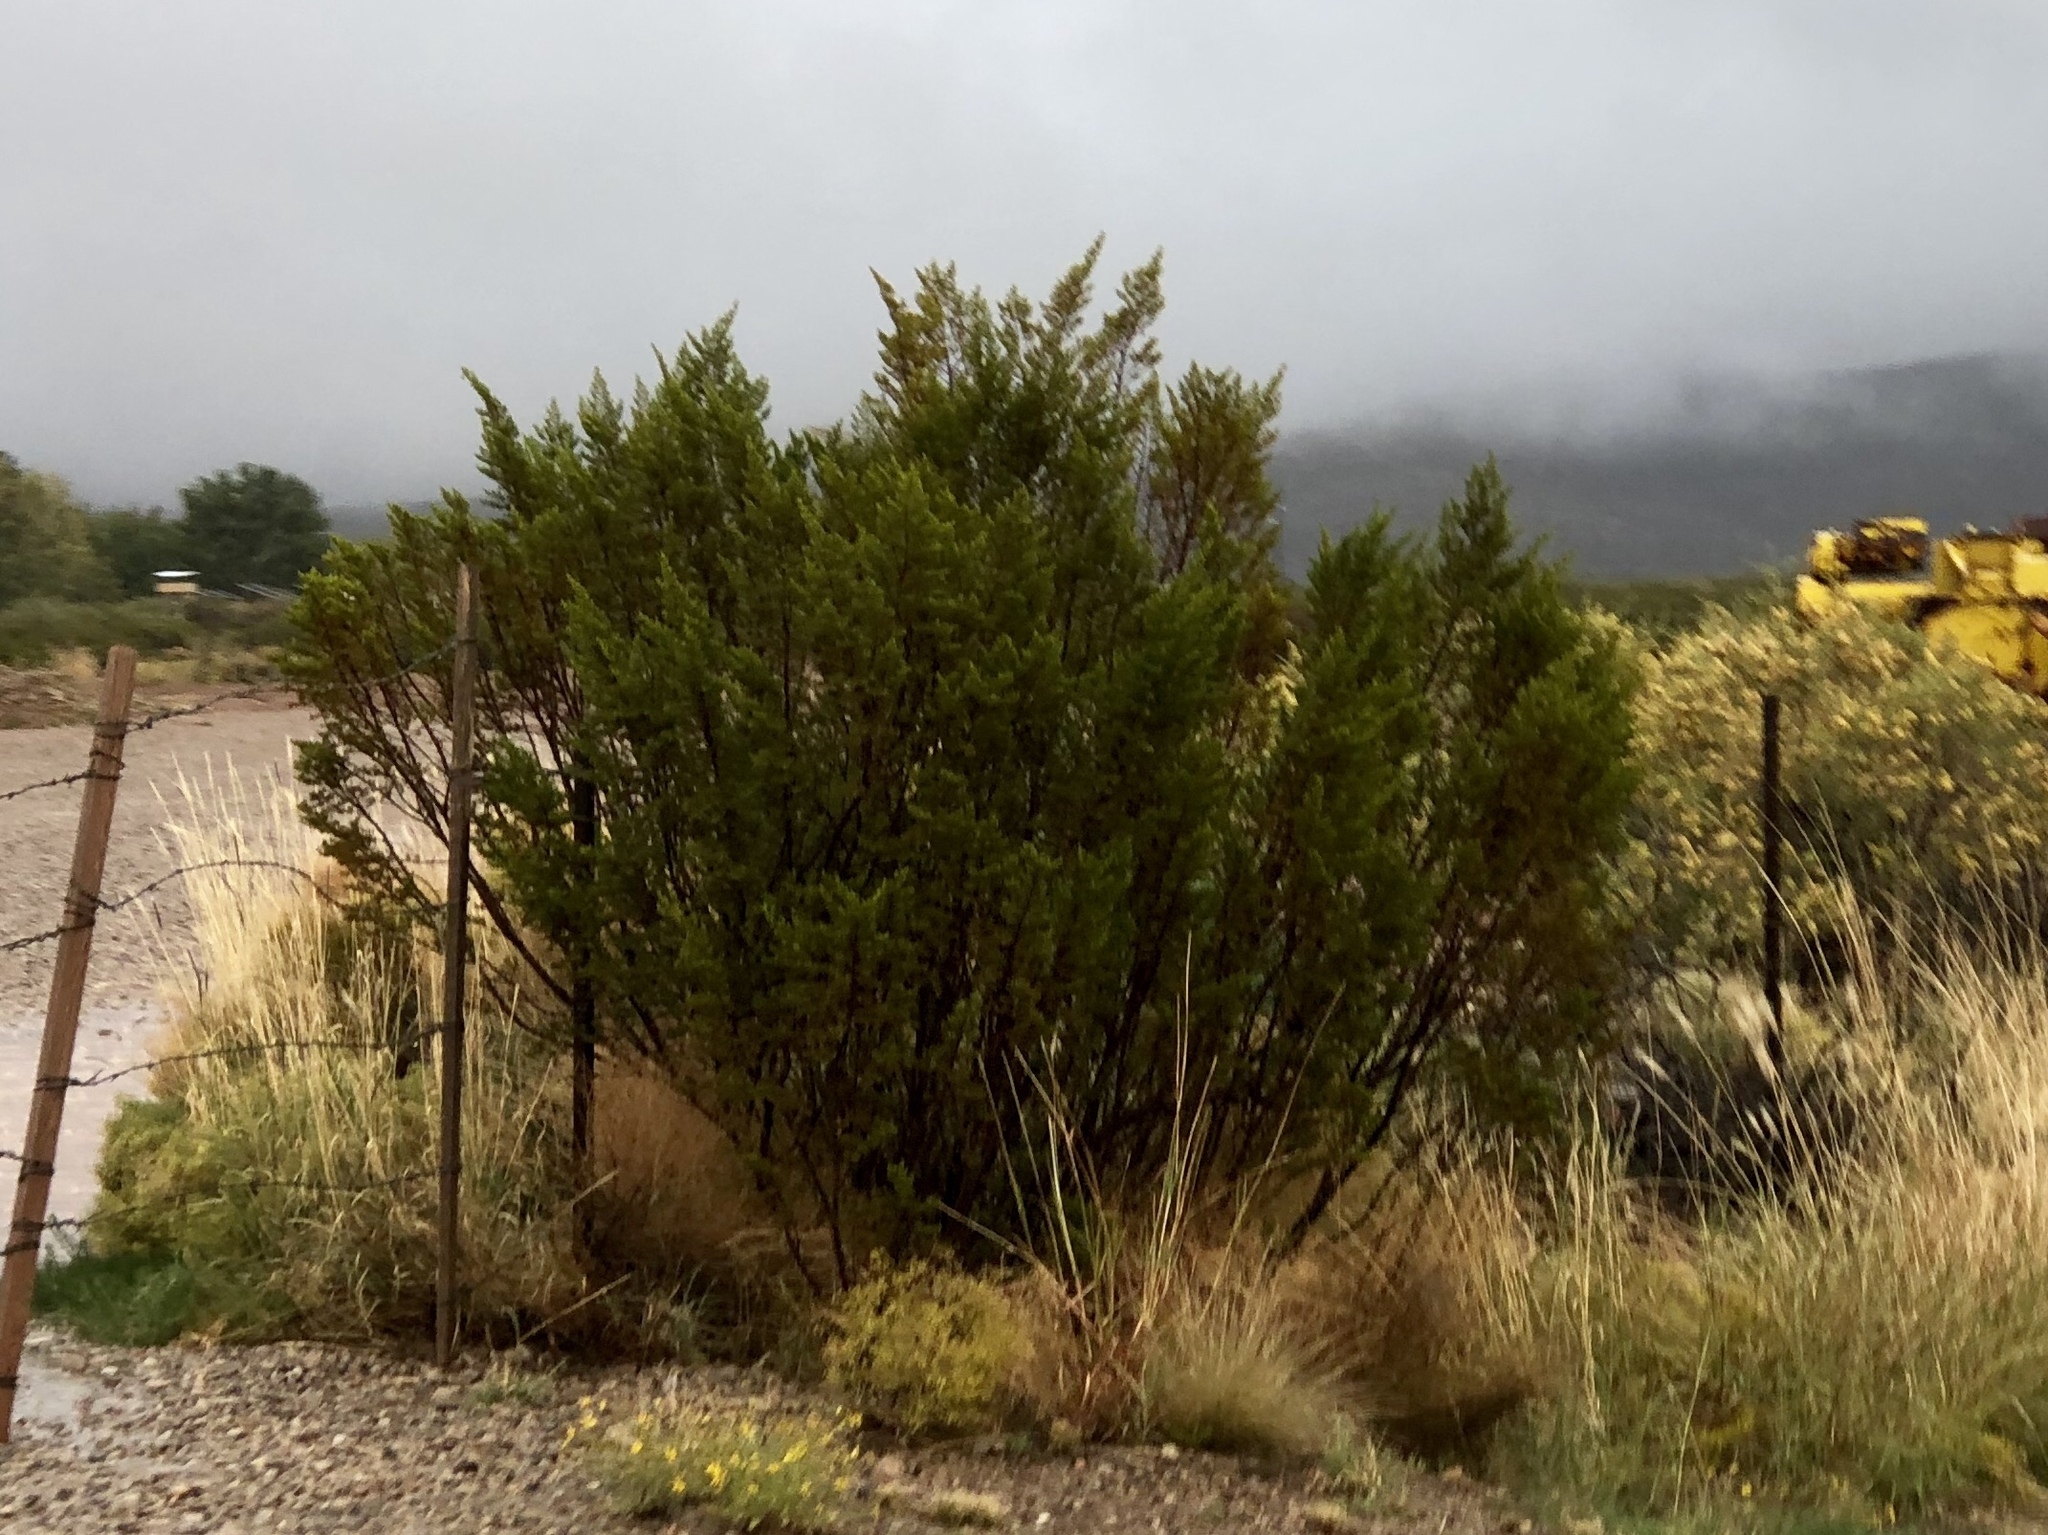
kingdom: Plantae
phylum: Tracheophyta
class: Magnoliopsida
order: Zygophyllales
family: Zygophyllaceae
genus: Larrea
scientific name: Larrea tridentata
